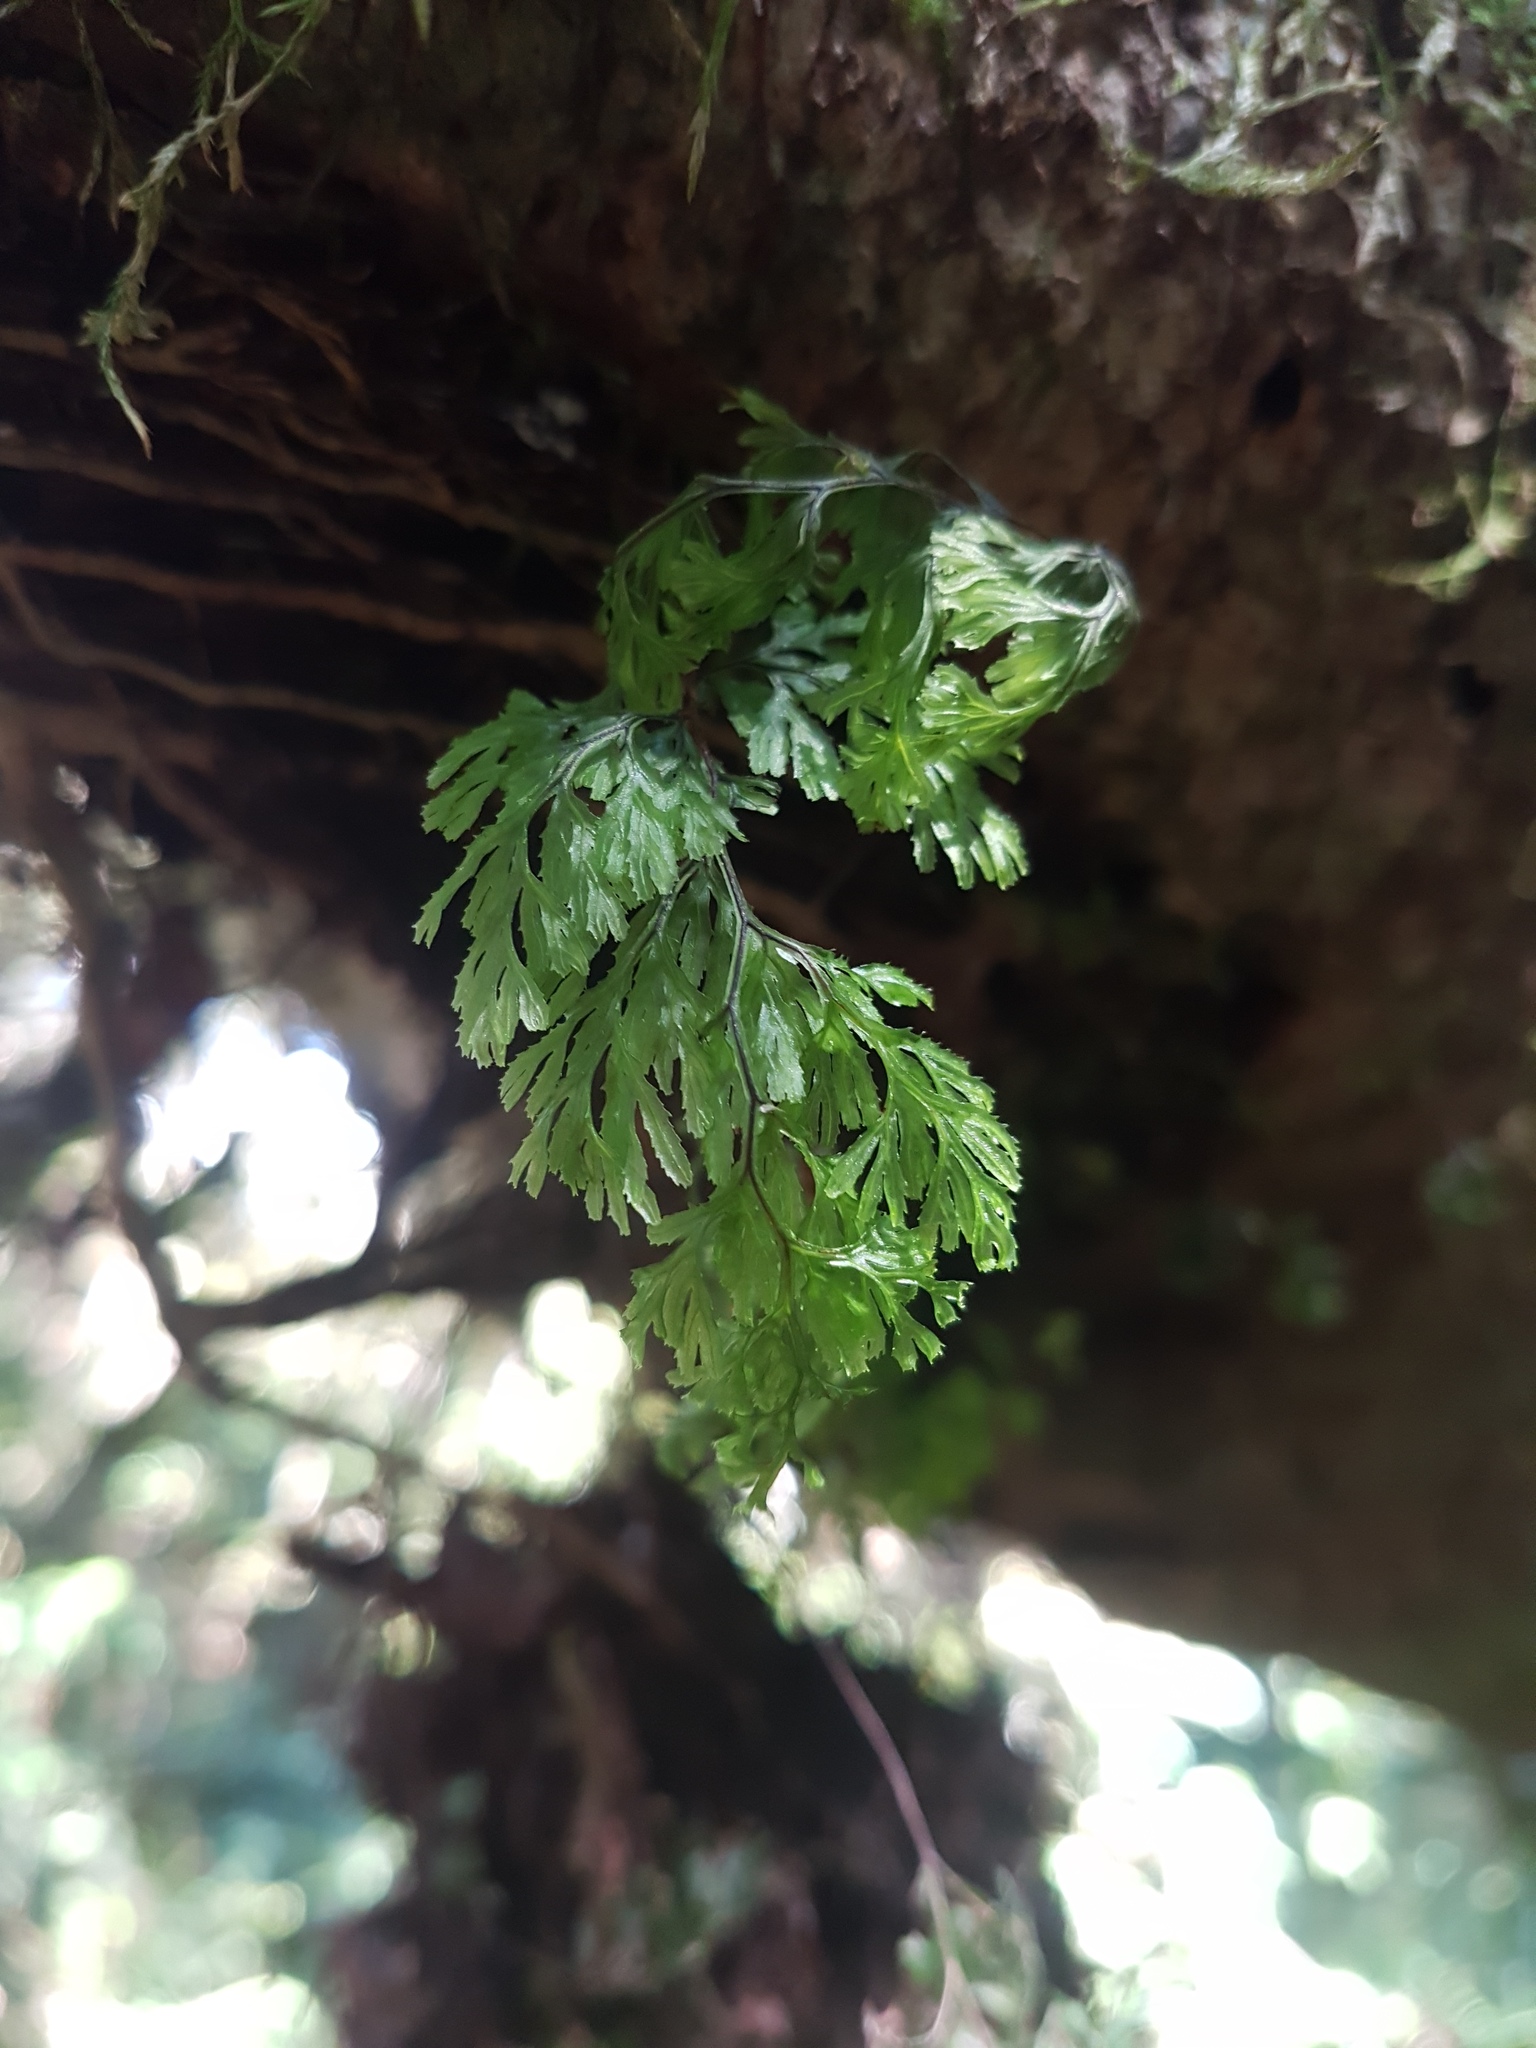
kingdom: Plantae
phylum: Tracheophyta
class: Polypodiopsida
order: Hymenophyllales
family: Hymenophyllaceae
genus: Hymenophyllum
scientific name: Hymenophyllum multifidum
